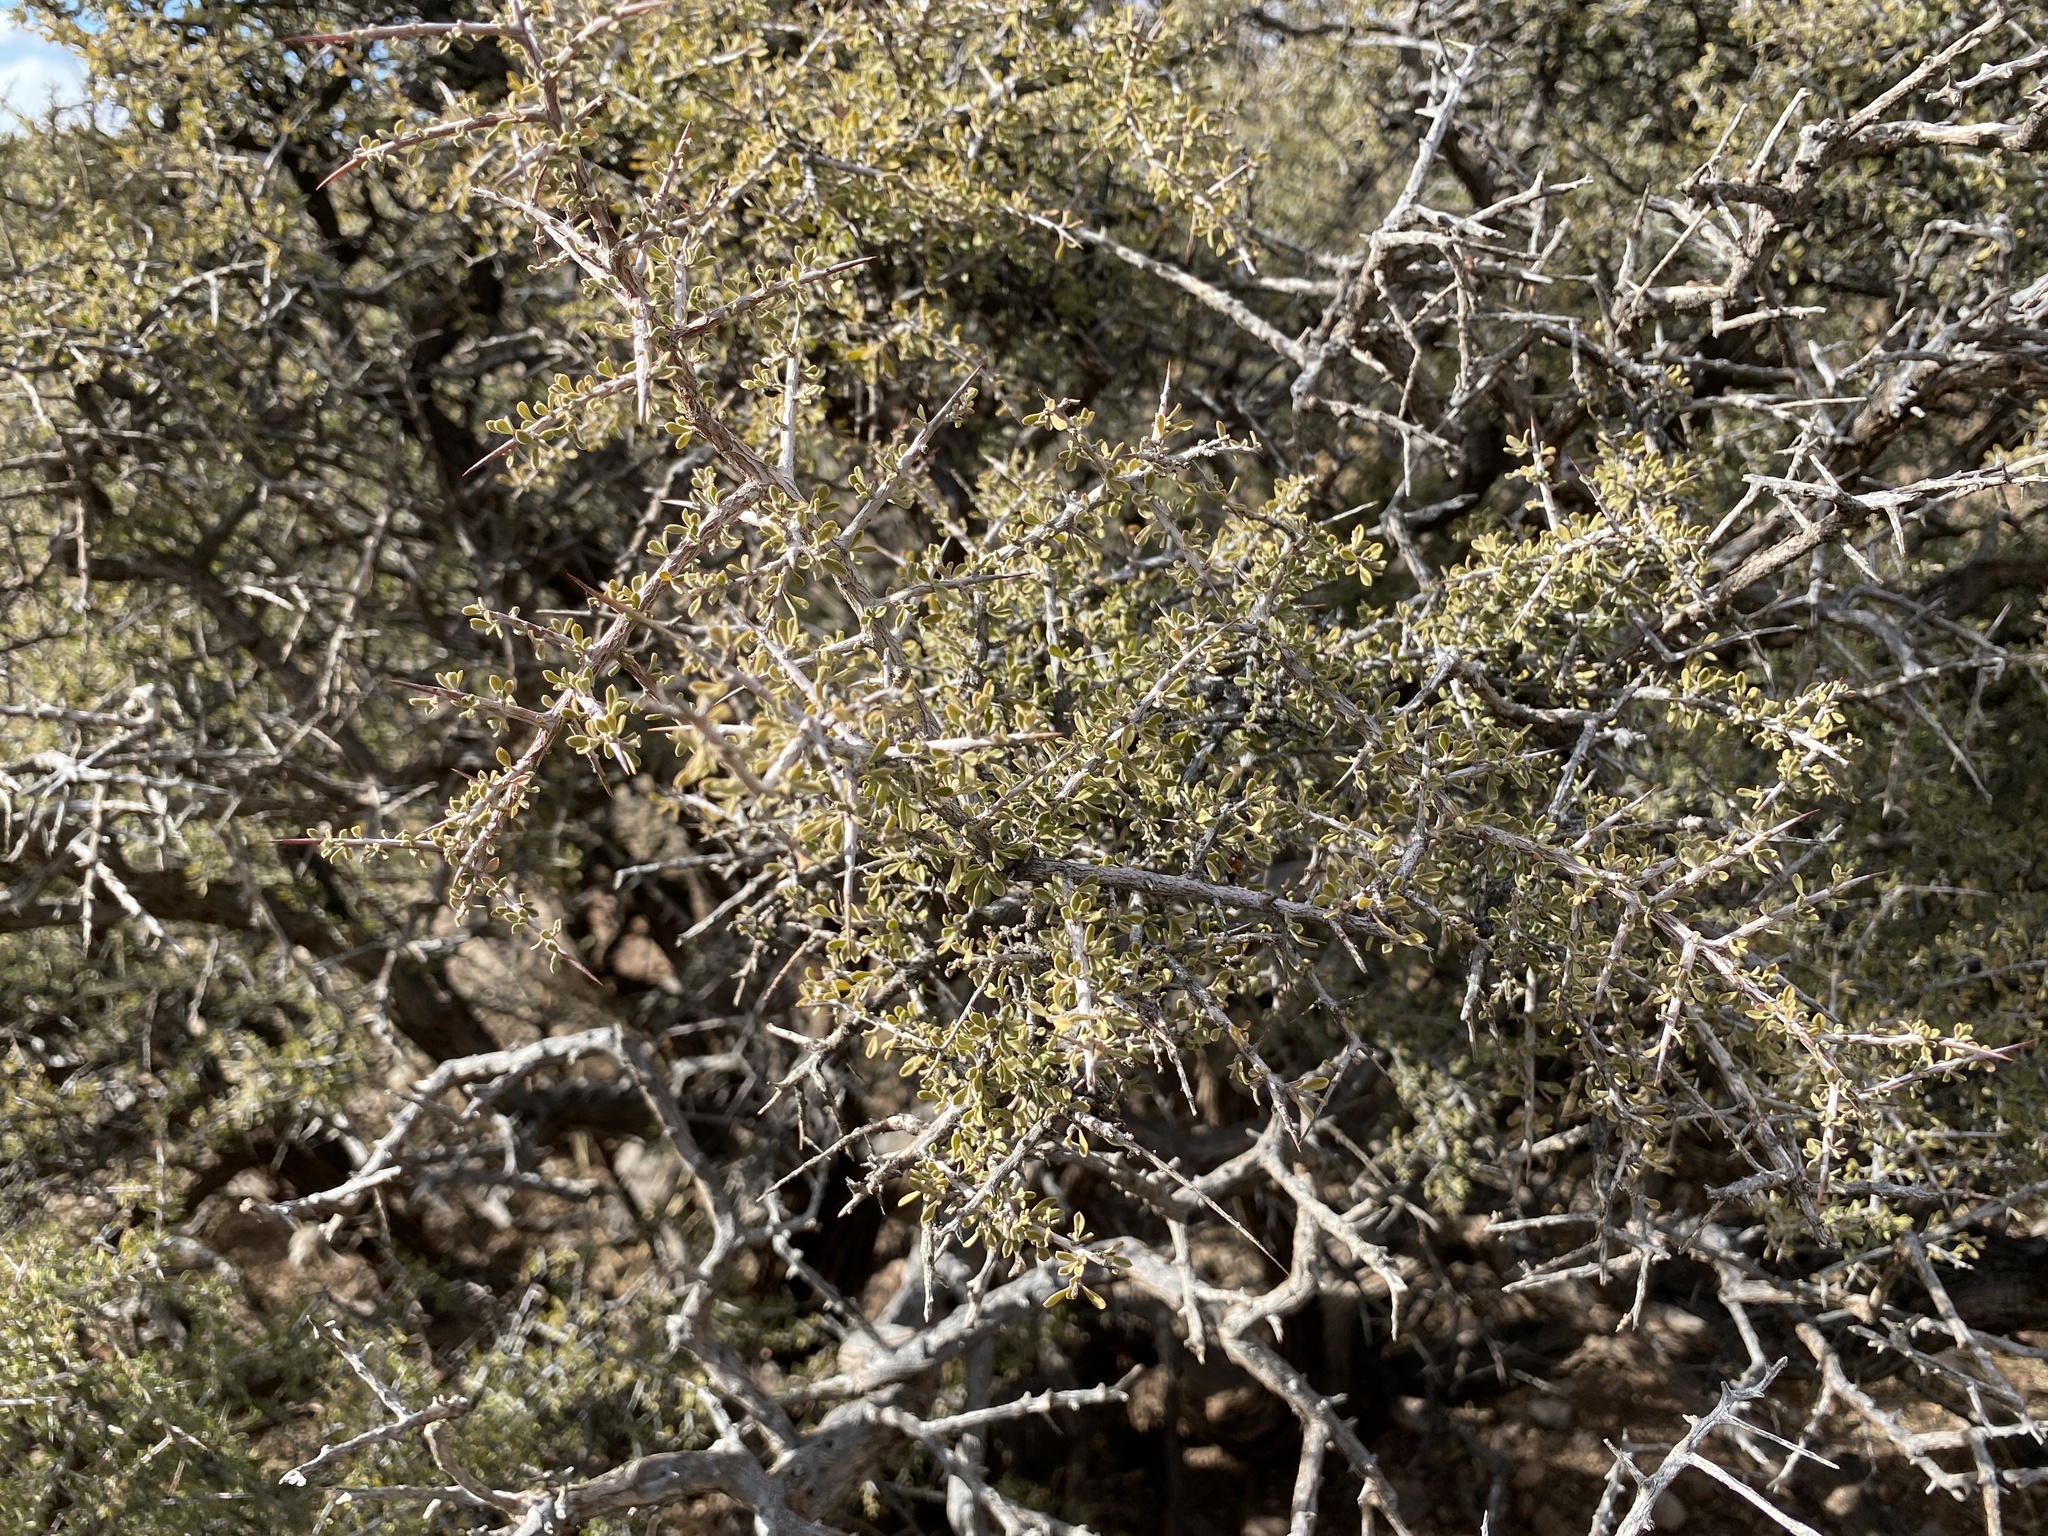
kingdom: Plantae
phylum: Tracheophyta
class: Magnoliopsida
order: Rosales
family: Rhamnaceae
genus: Condalia
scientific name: Condalia warnockii
